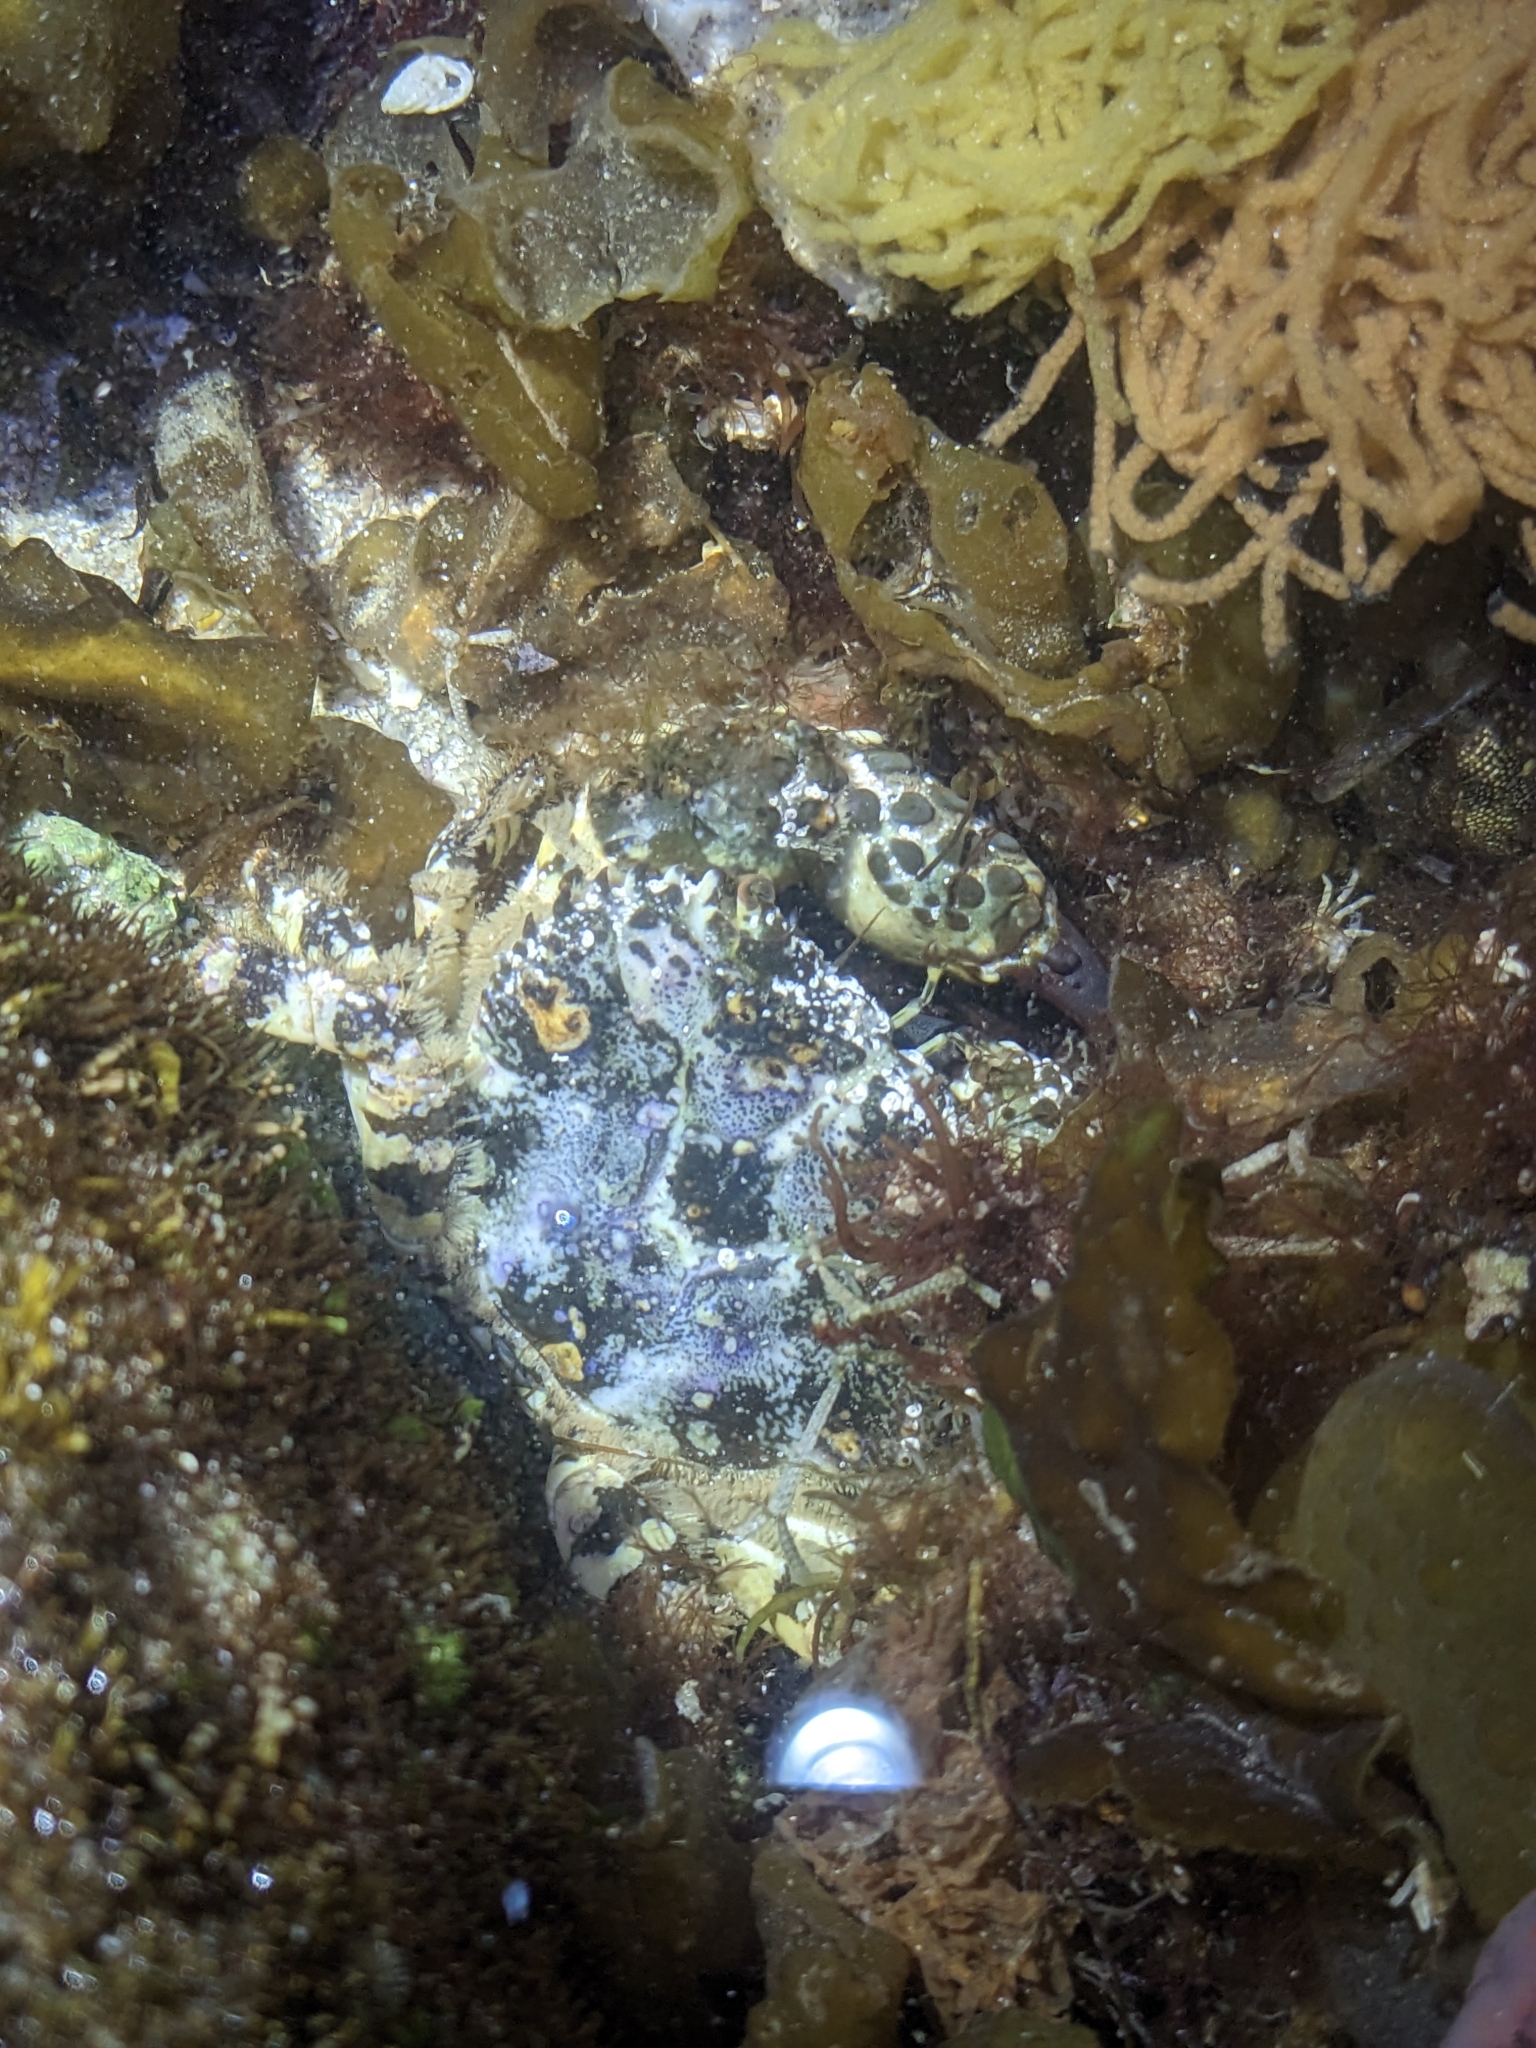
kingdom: Animalia
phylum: Arthropoda
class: Malacostraca
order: Decapoda
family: Eriphiidae
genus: Eriphia
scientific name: Eriphia squamata
